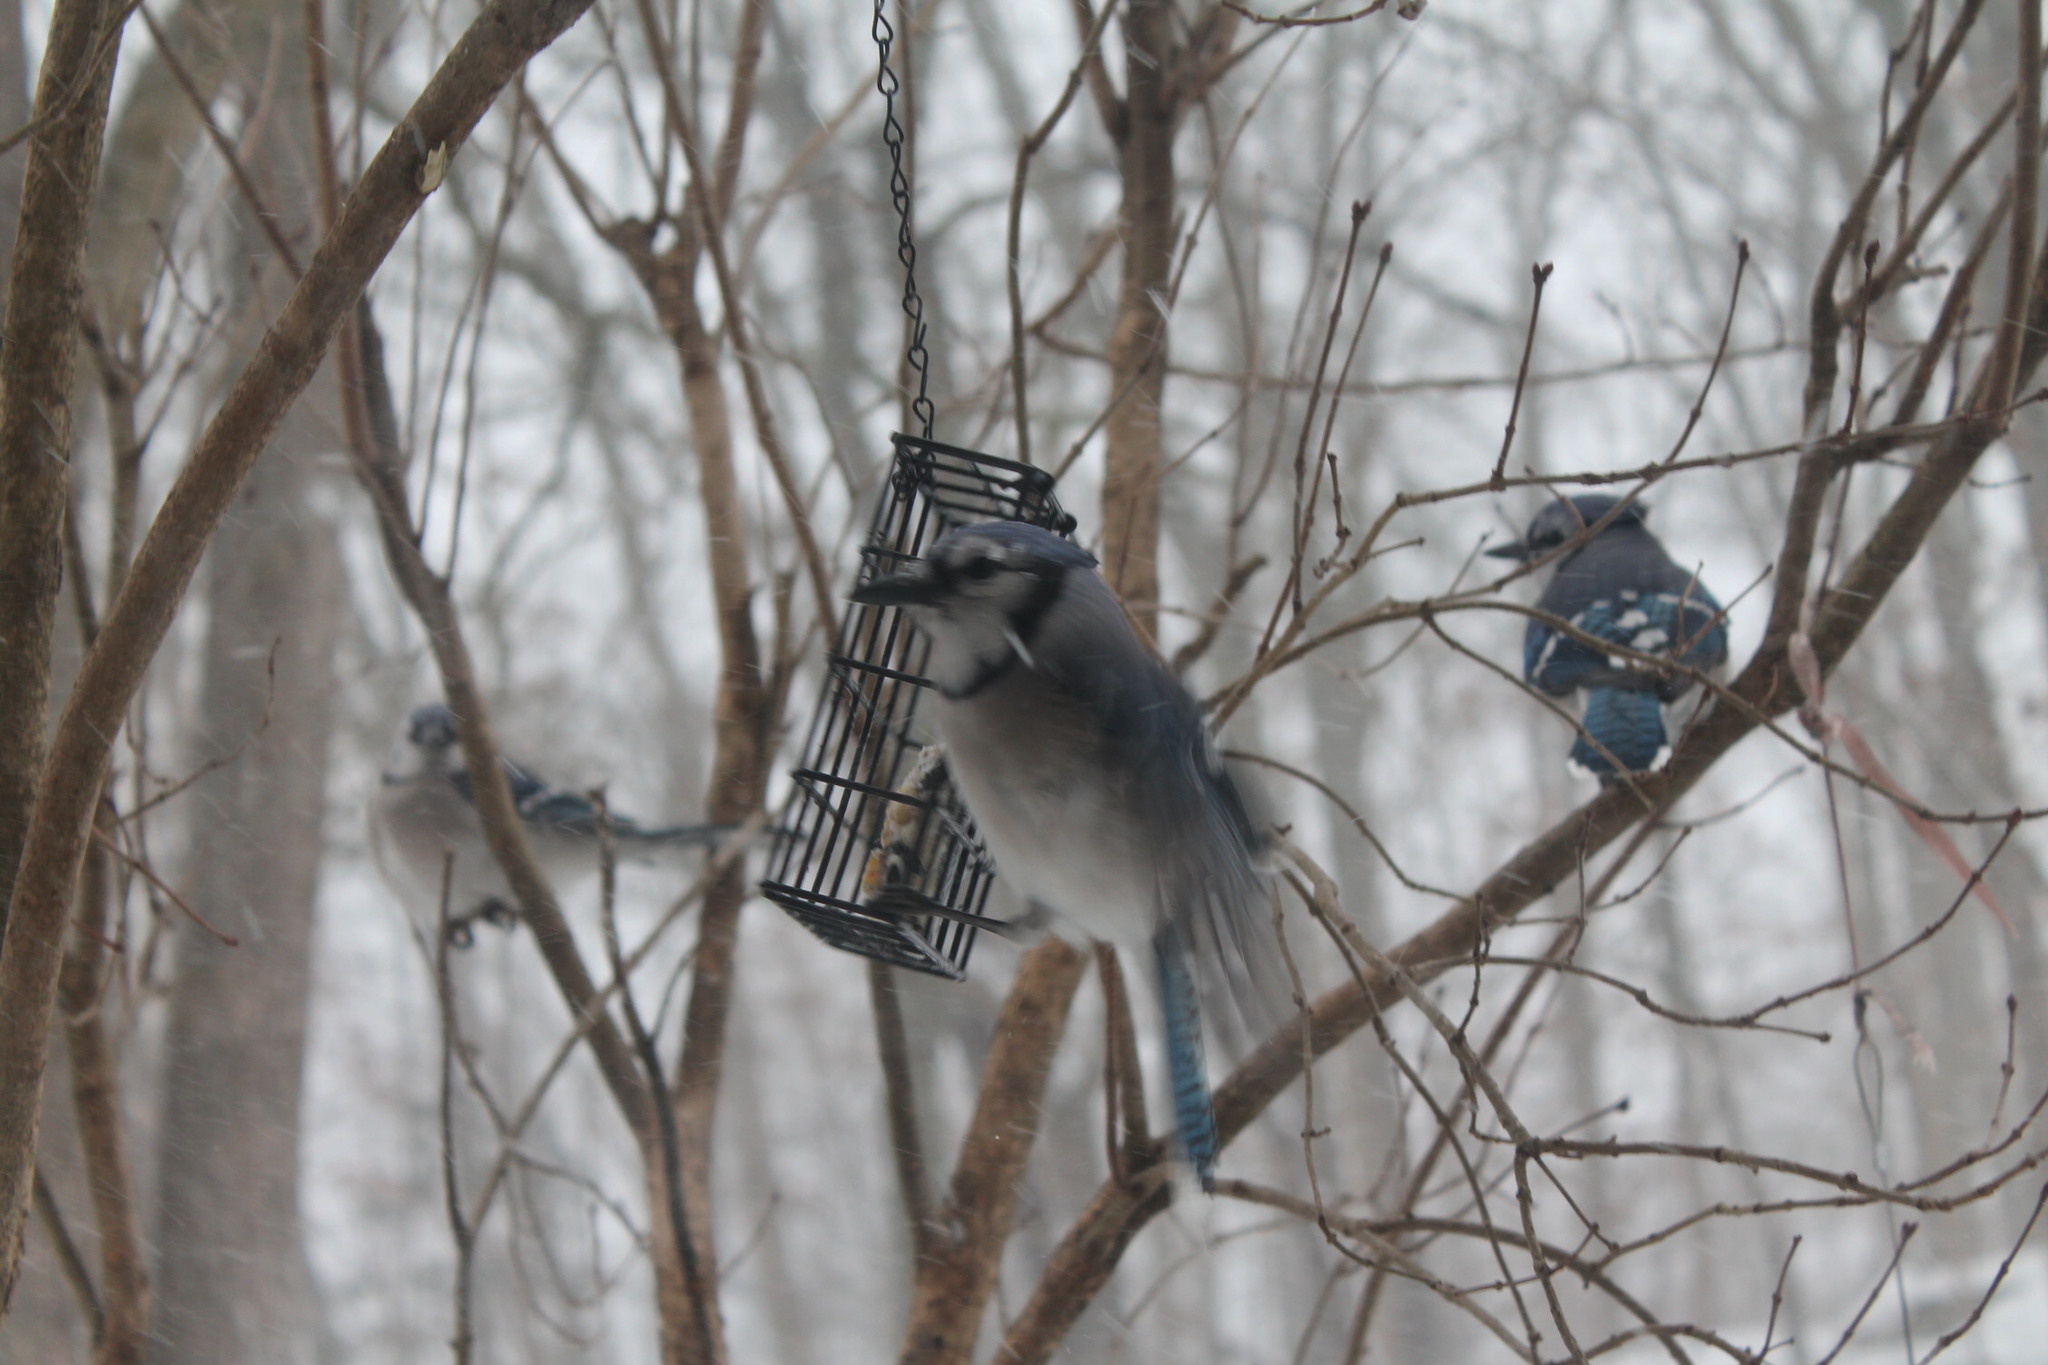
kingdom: Animalia
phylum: Chordata
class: Aves
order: Passeriformes
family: Corvidae
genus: Cyanocitta
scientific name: Cyanocitta cristata
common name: Blue jay
